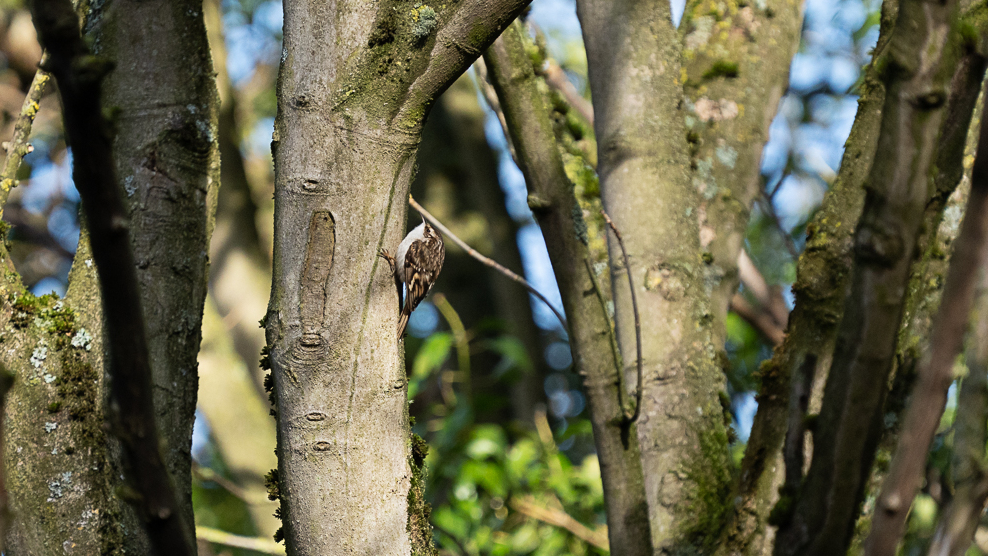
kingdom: Animalia
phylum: Chordata
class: Aves
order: Passeriformes
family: Certhiidae
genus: Certhia
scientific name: Certhia familiaris
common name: Eurasian treecreeper
